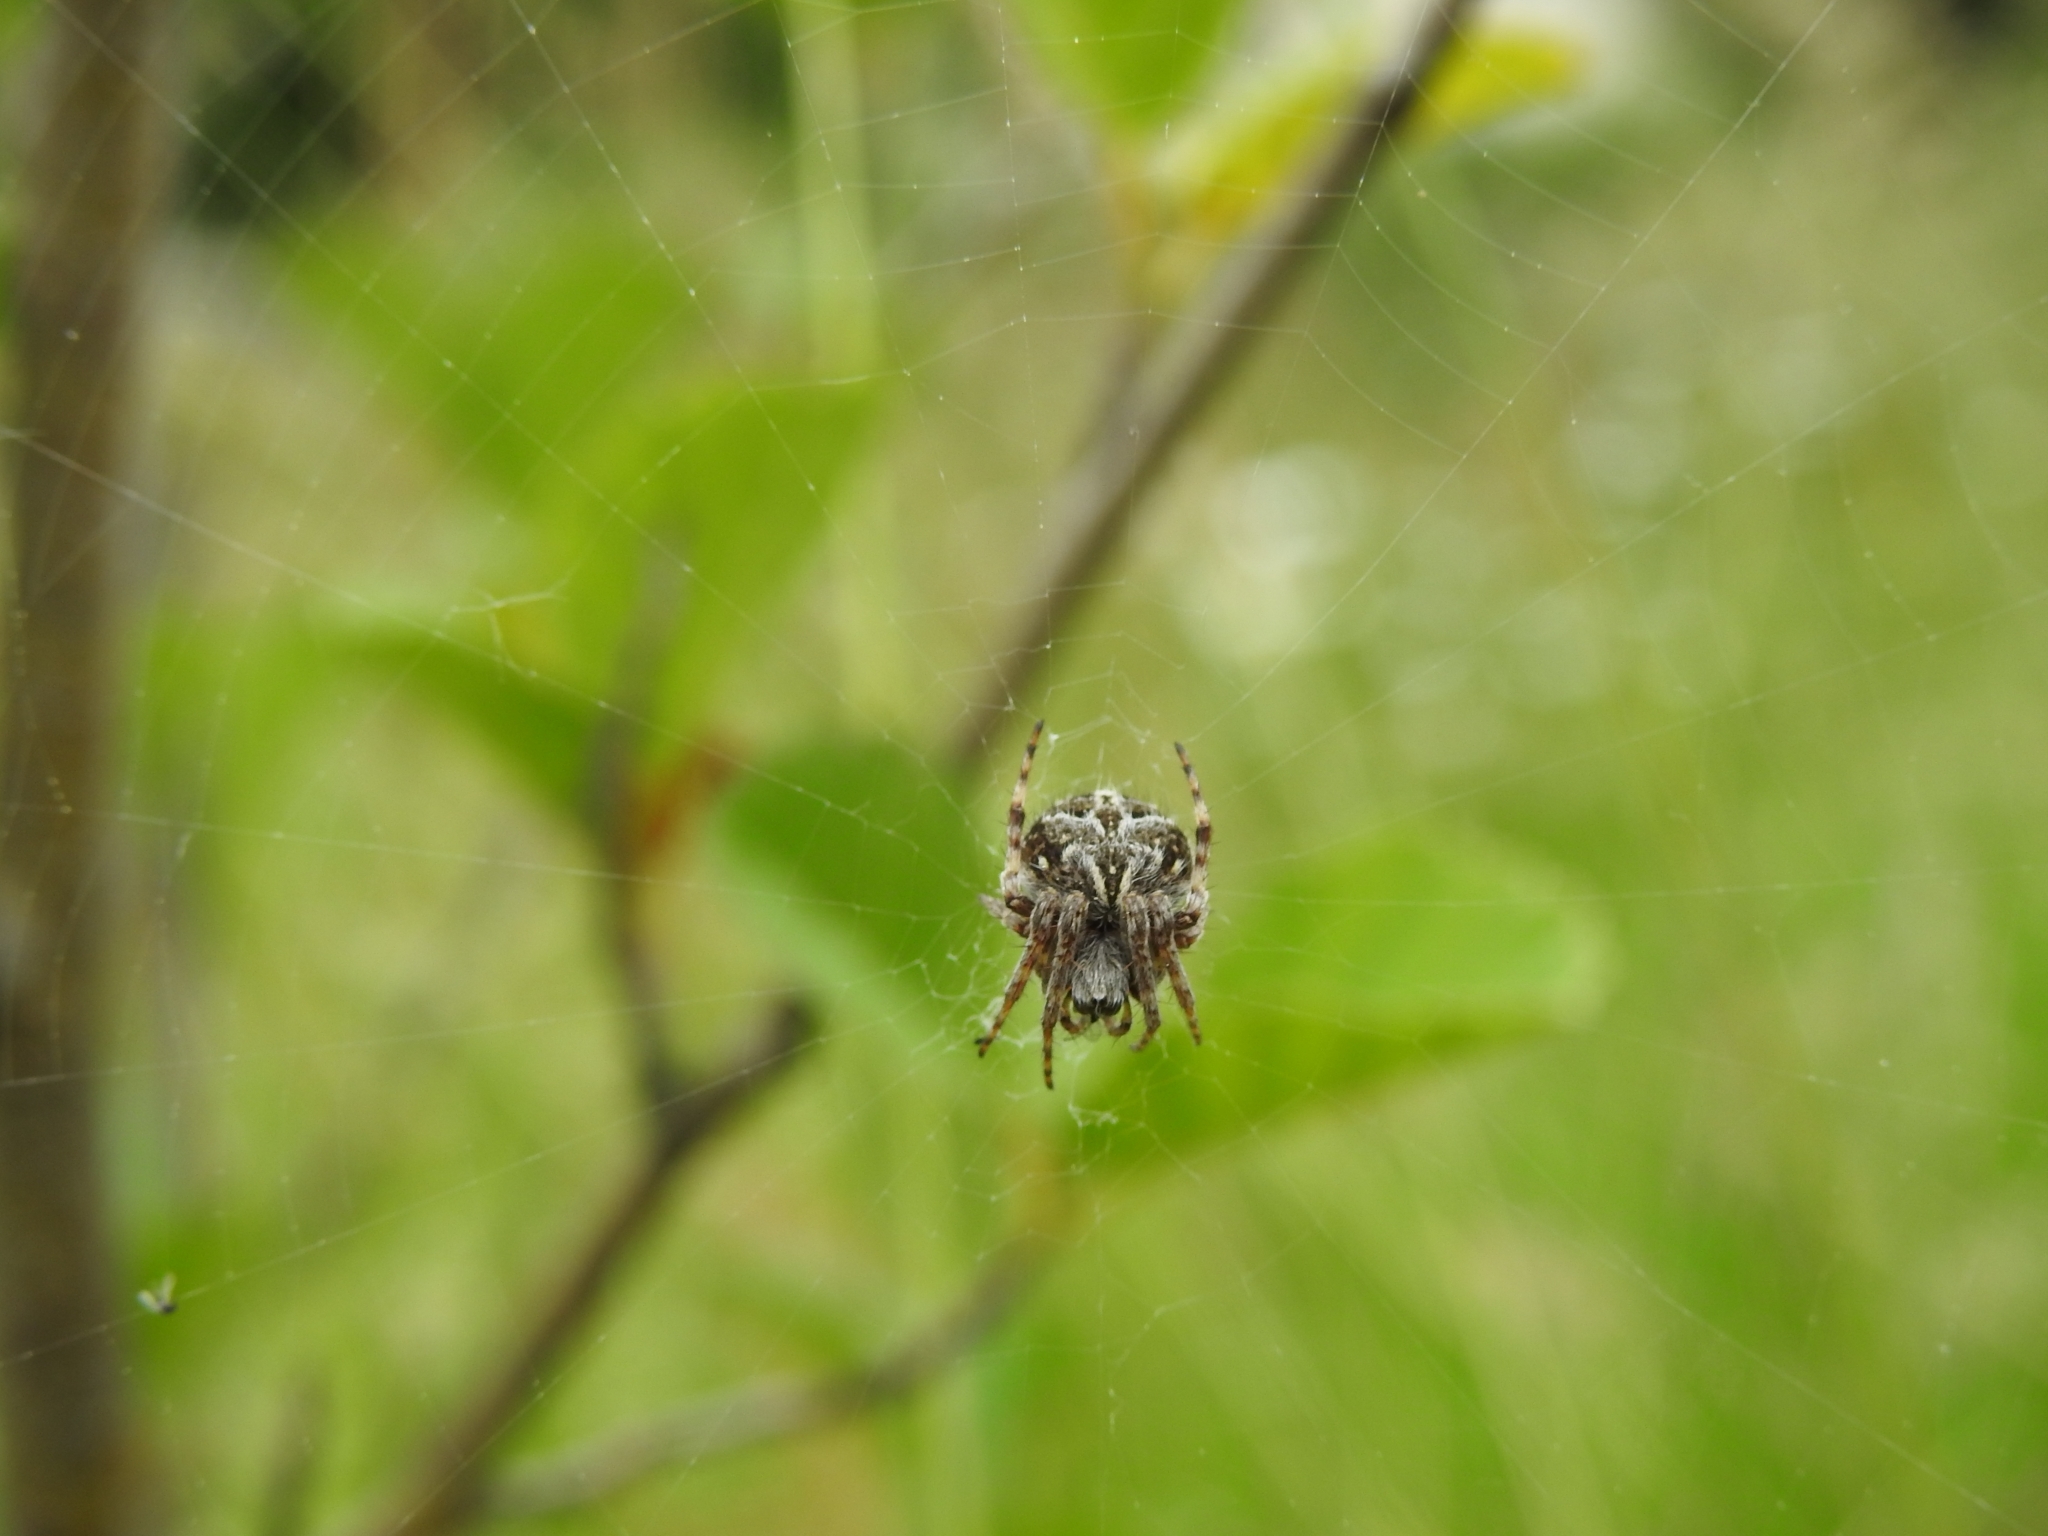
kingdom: Animalia
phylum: Arthropoda
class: Arachnida
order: Araneae
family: Araneidae
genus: Agalenatea
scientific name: Agalenatea redii
